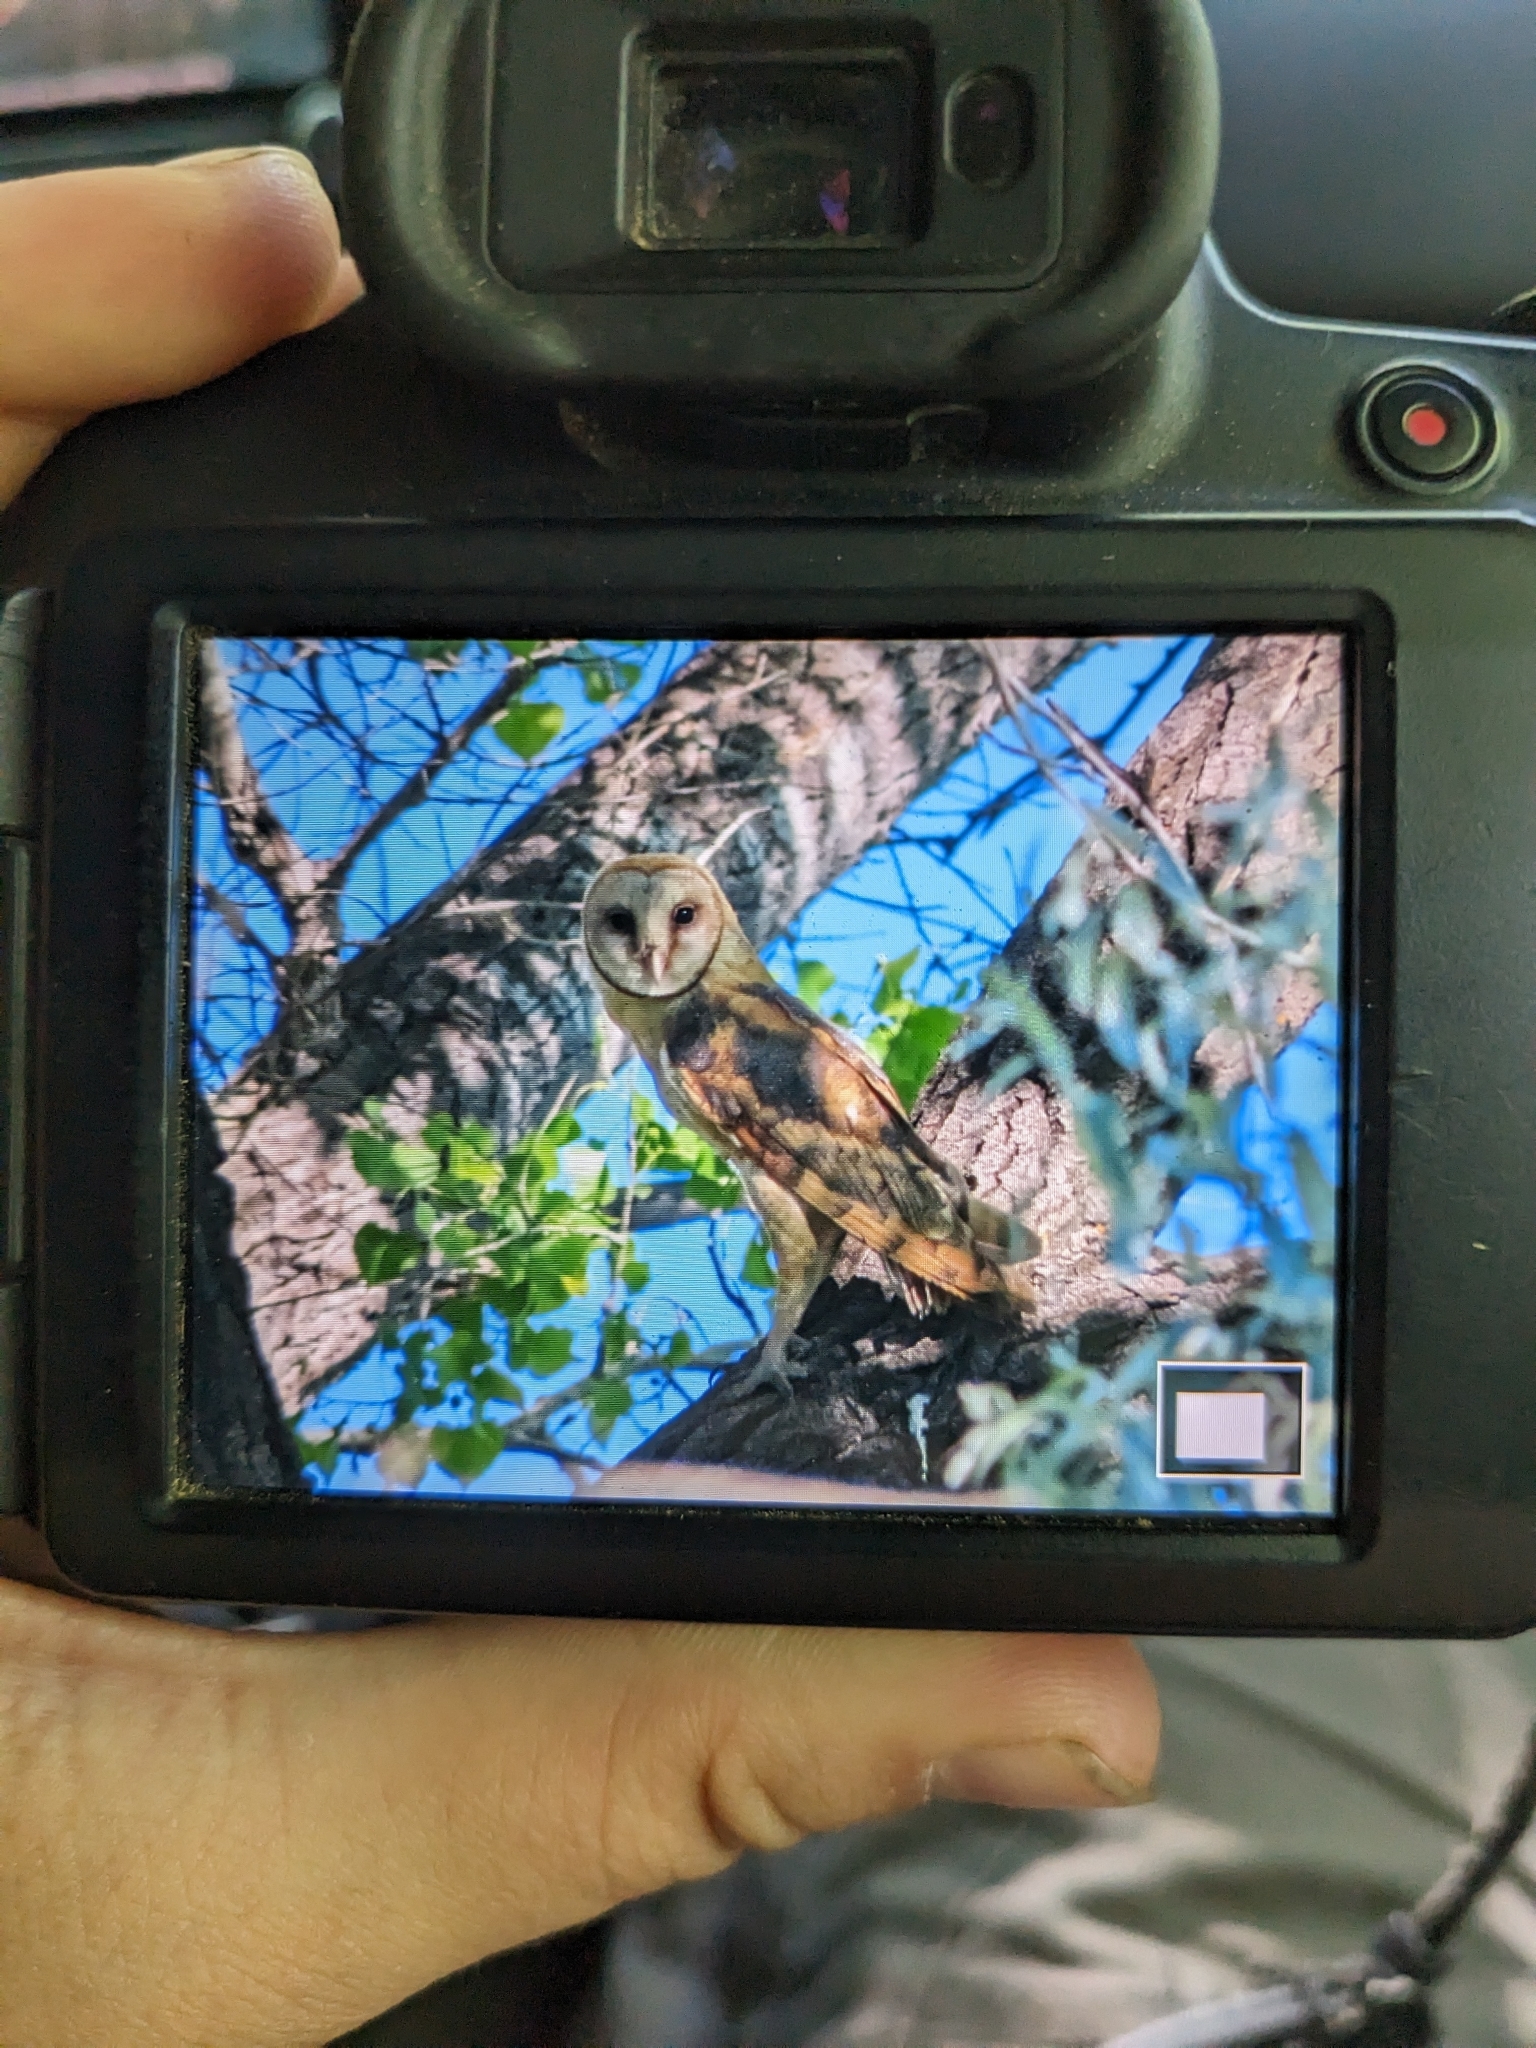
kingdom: Animalia
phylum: Chordata
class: Aves
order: Strigiformes
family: Tytonidae
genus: Tyto
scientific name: Tyto alba
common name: Barn owl
